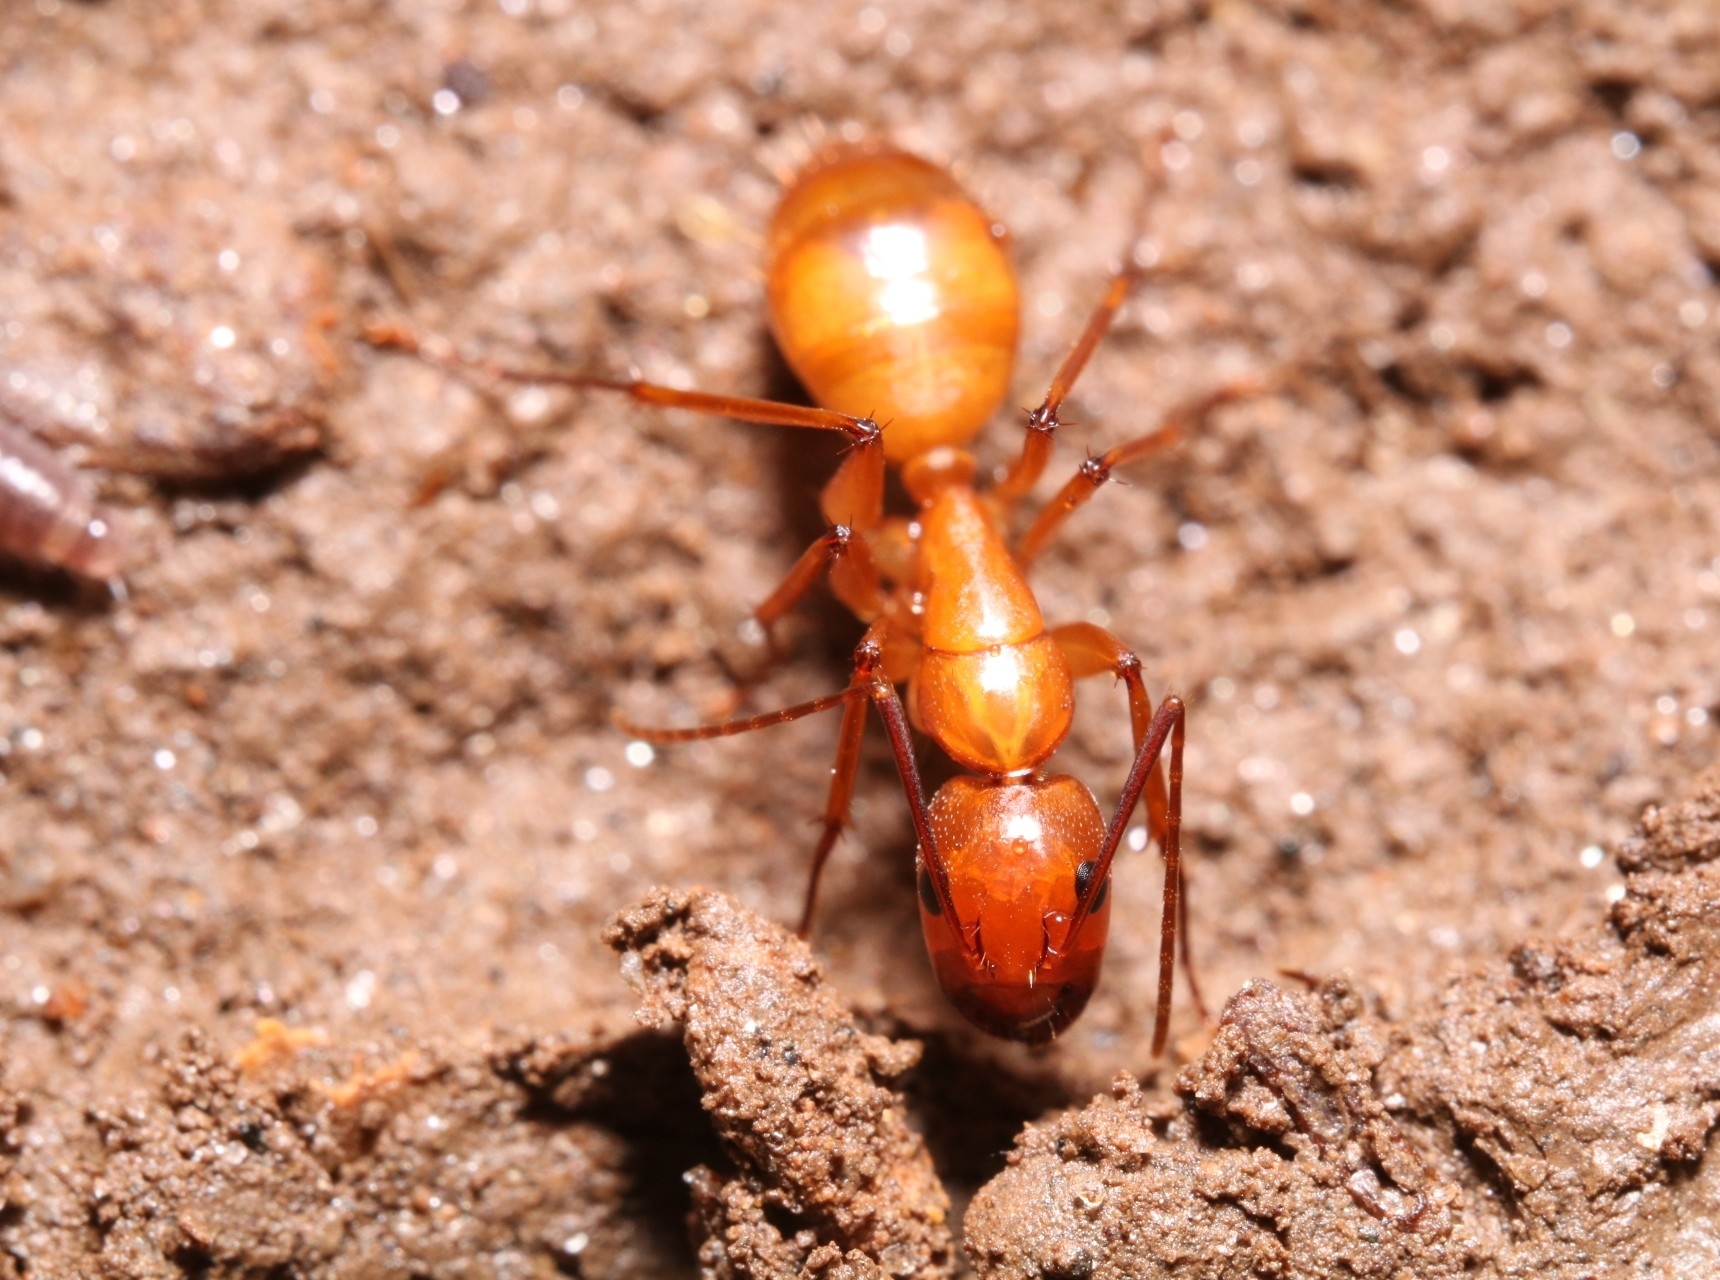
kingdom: Animalia
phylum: Arthropoda
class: Insecta
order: Hymenoptera
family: Formicidae
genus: Camponotus
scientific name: Camponotus castaneus
